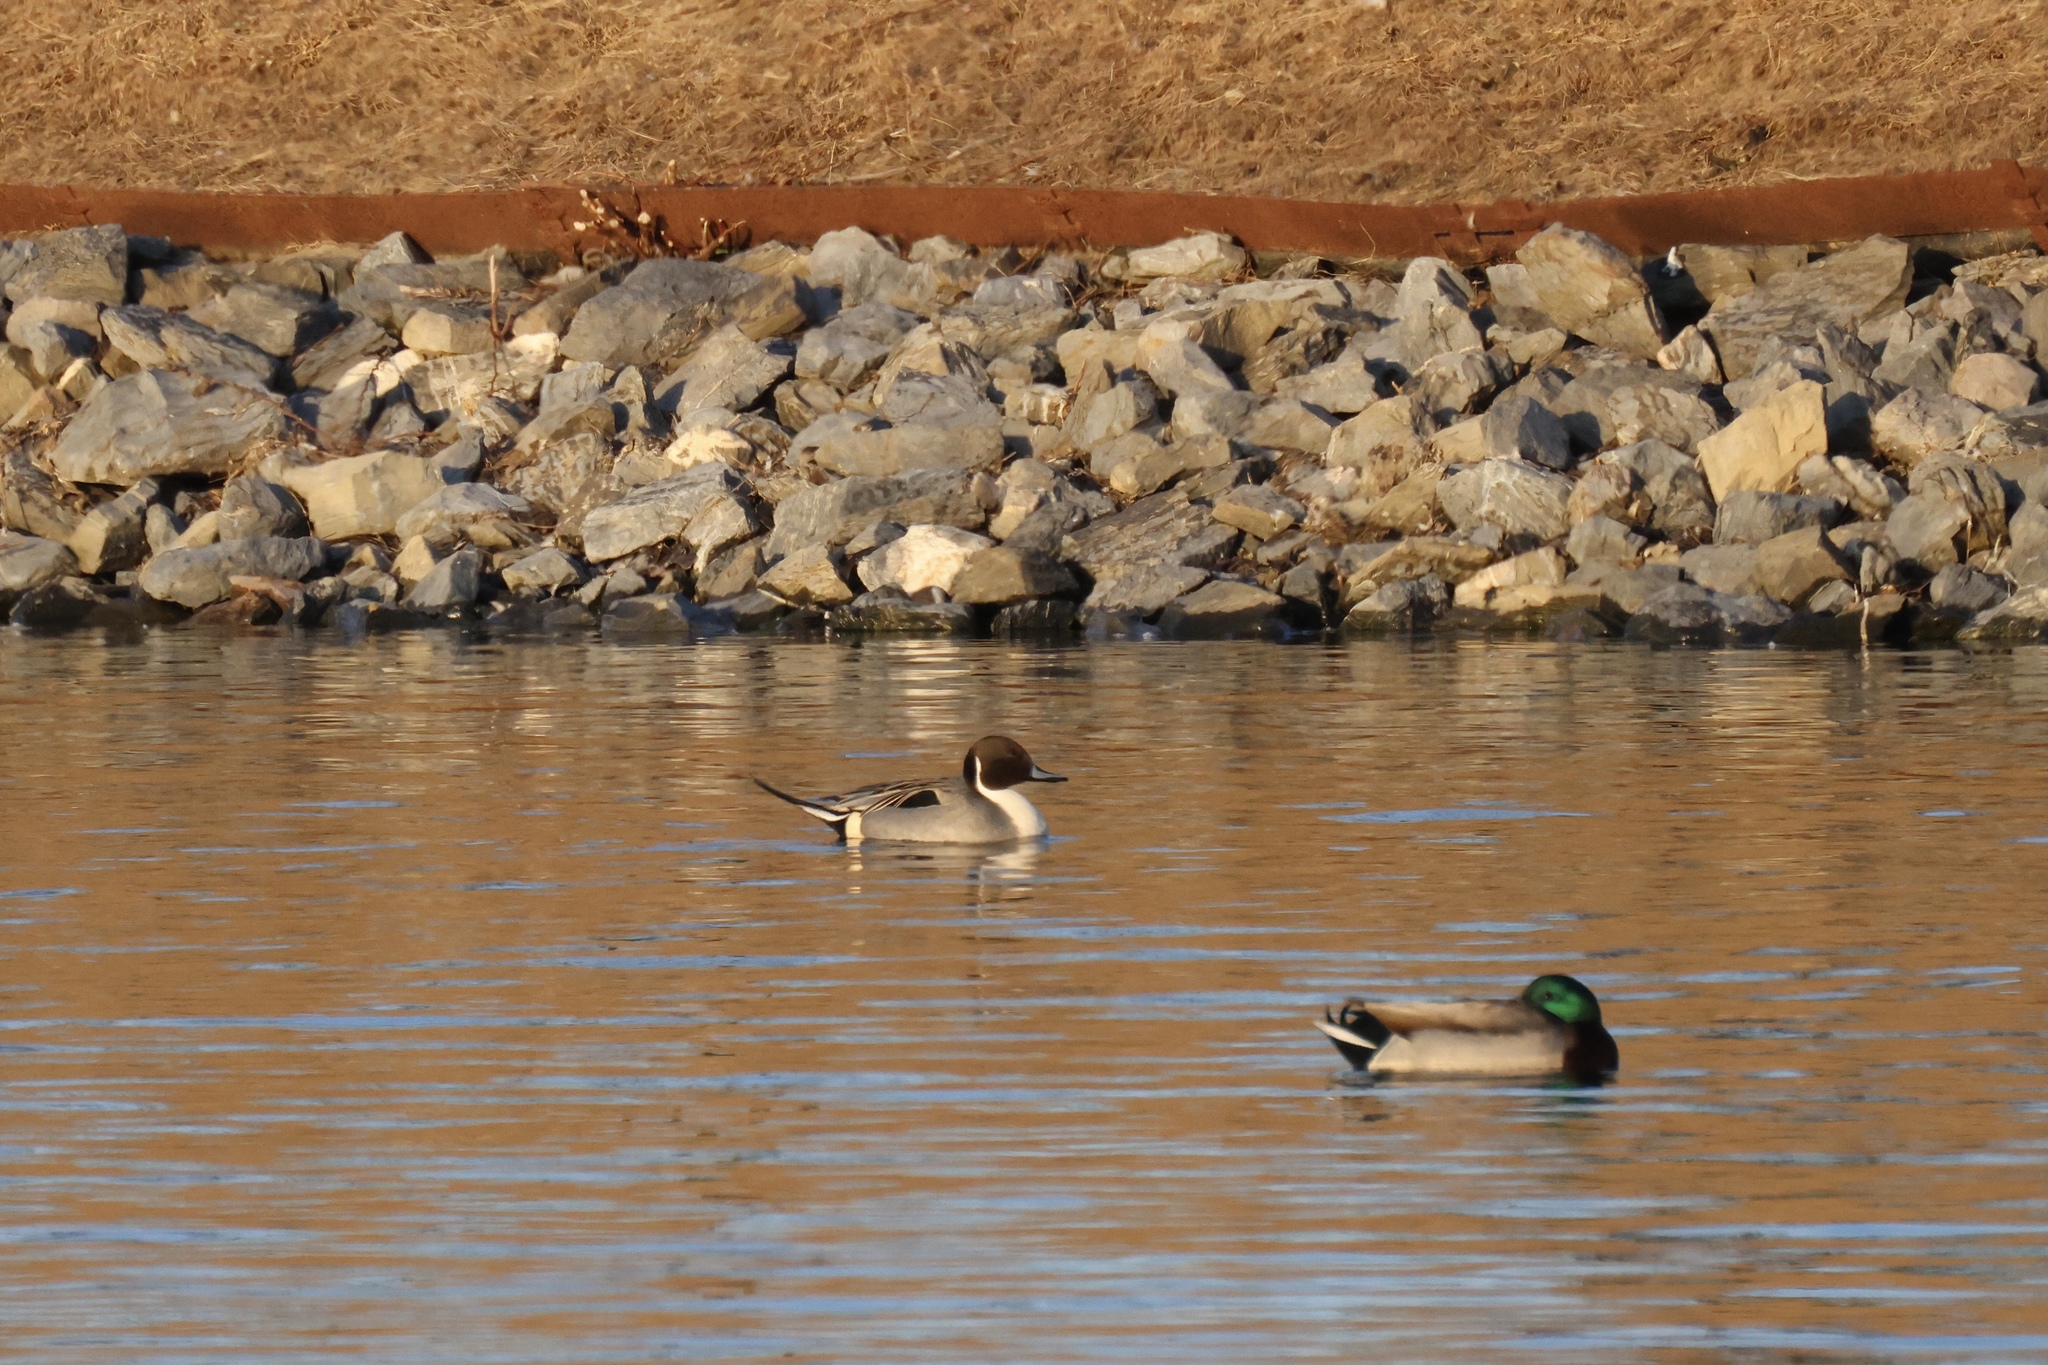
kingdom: Animalia
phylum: Chordata
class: Aves
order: Anseriformes
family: Anatidae
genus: Anas
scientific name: Anas acuta
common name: Northern pintail
